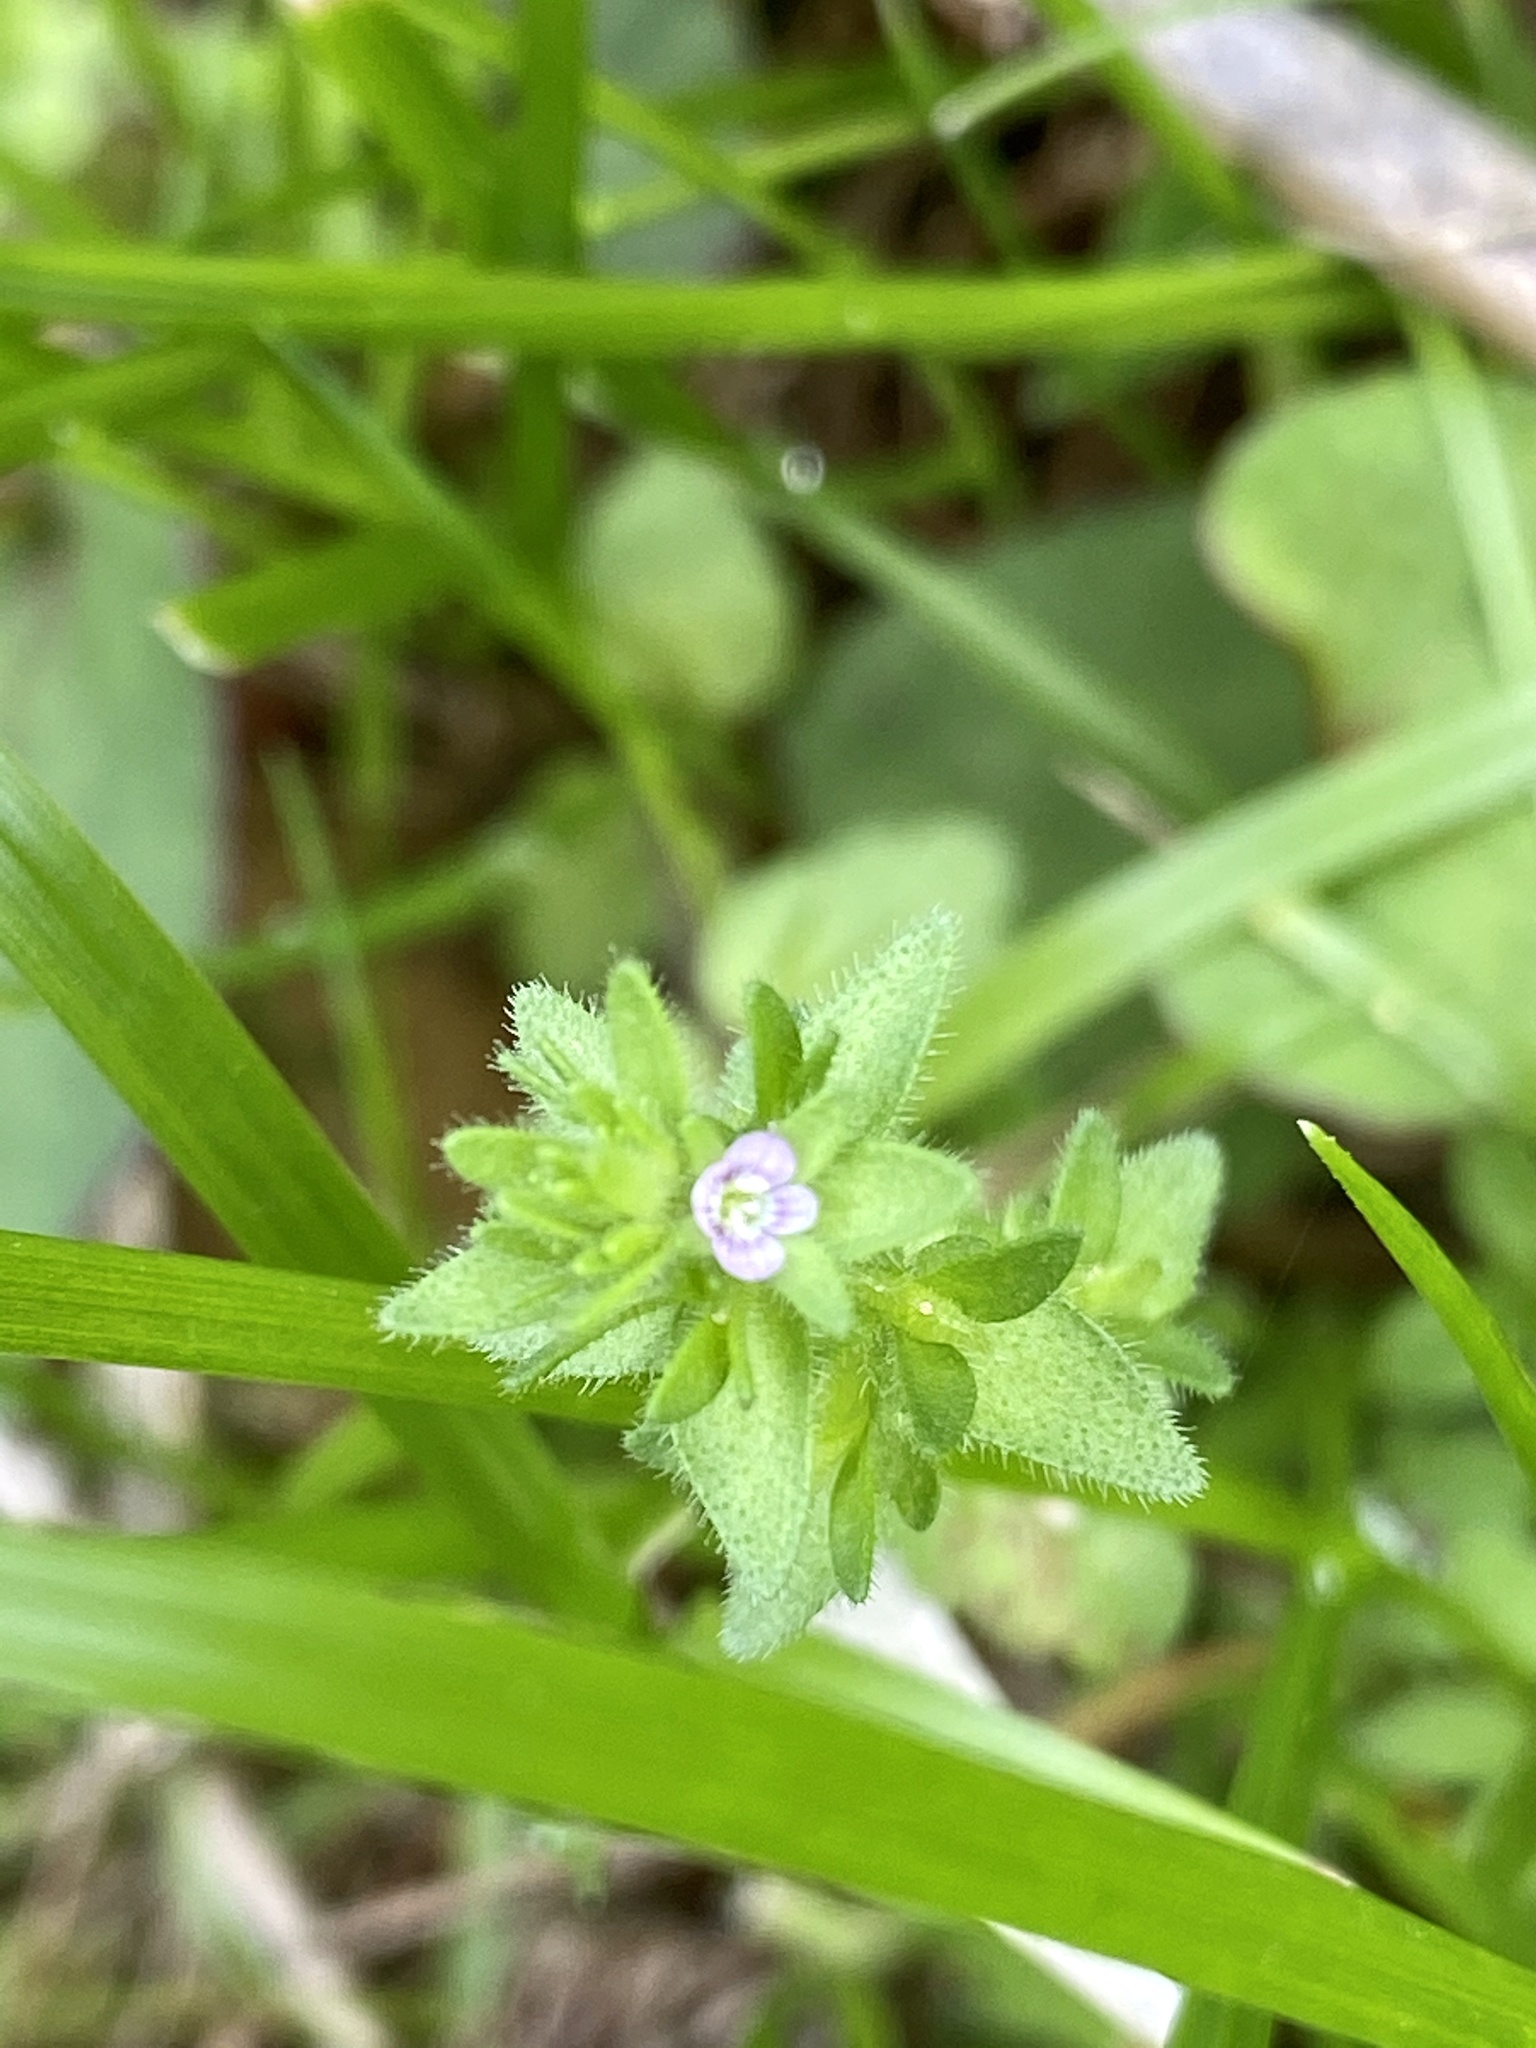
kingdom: Plantae
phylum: Tracheophyta
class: Magnoliopsida
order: Lamiales
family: Plantaginaceae
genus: Veronica
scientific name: Veronica arvensis
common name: Corn speedwell
